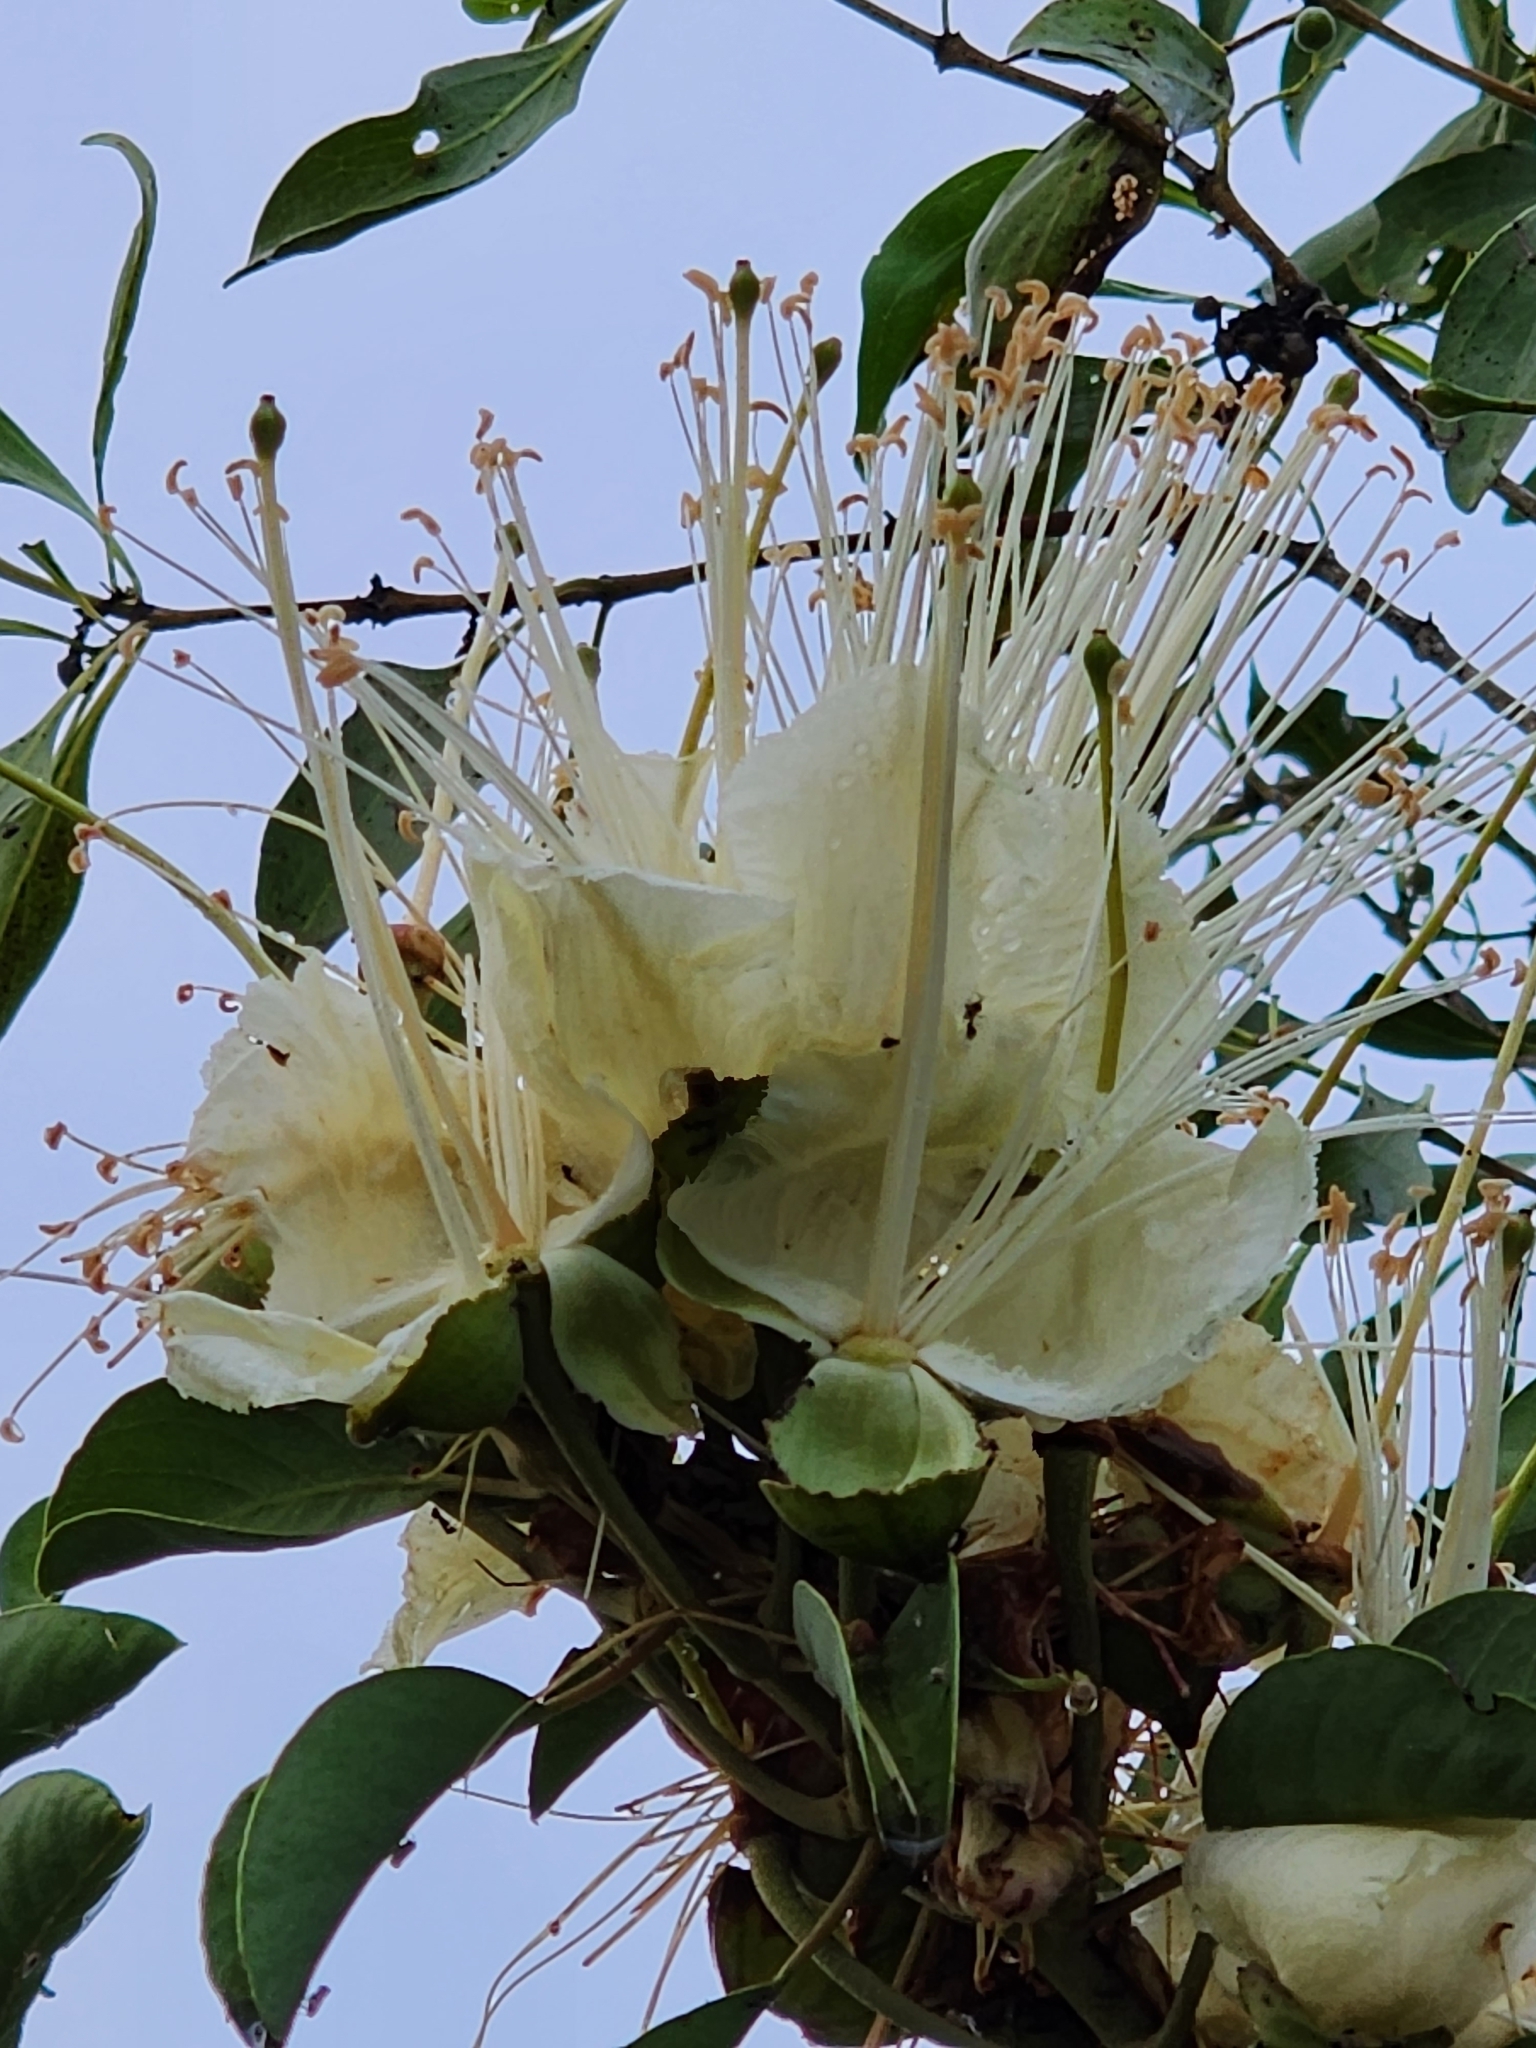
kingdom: Plantae
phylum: Tracheophyta
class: Magnoliopsida
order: Brassicales
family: Capparaceae
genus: Capparis
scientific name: Capparis canescens
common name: Native caper
